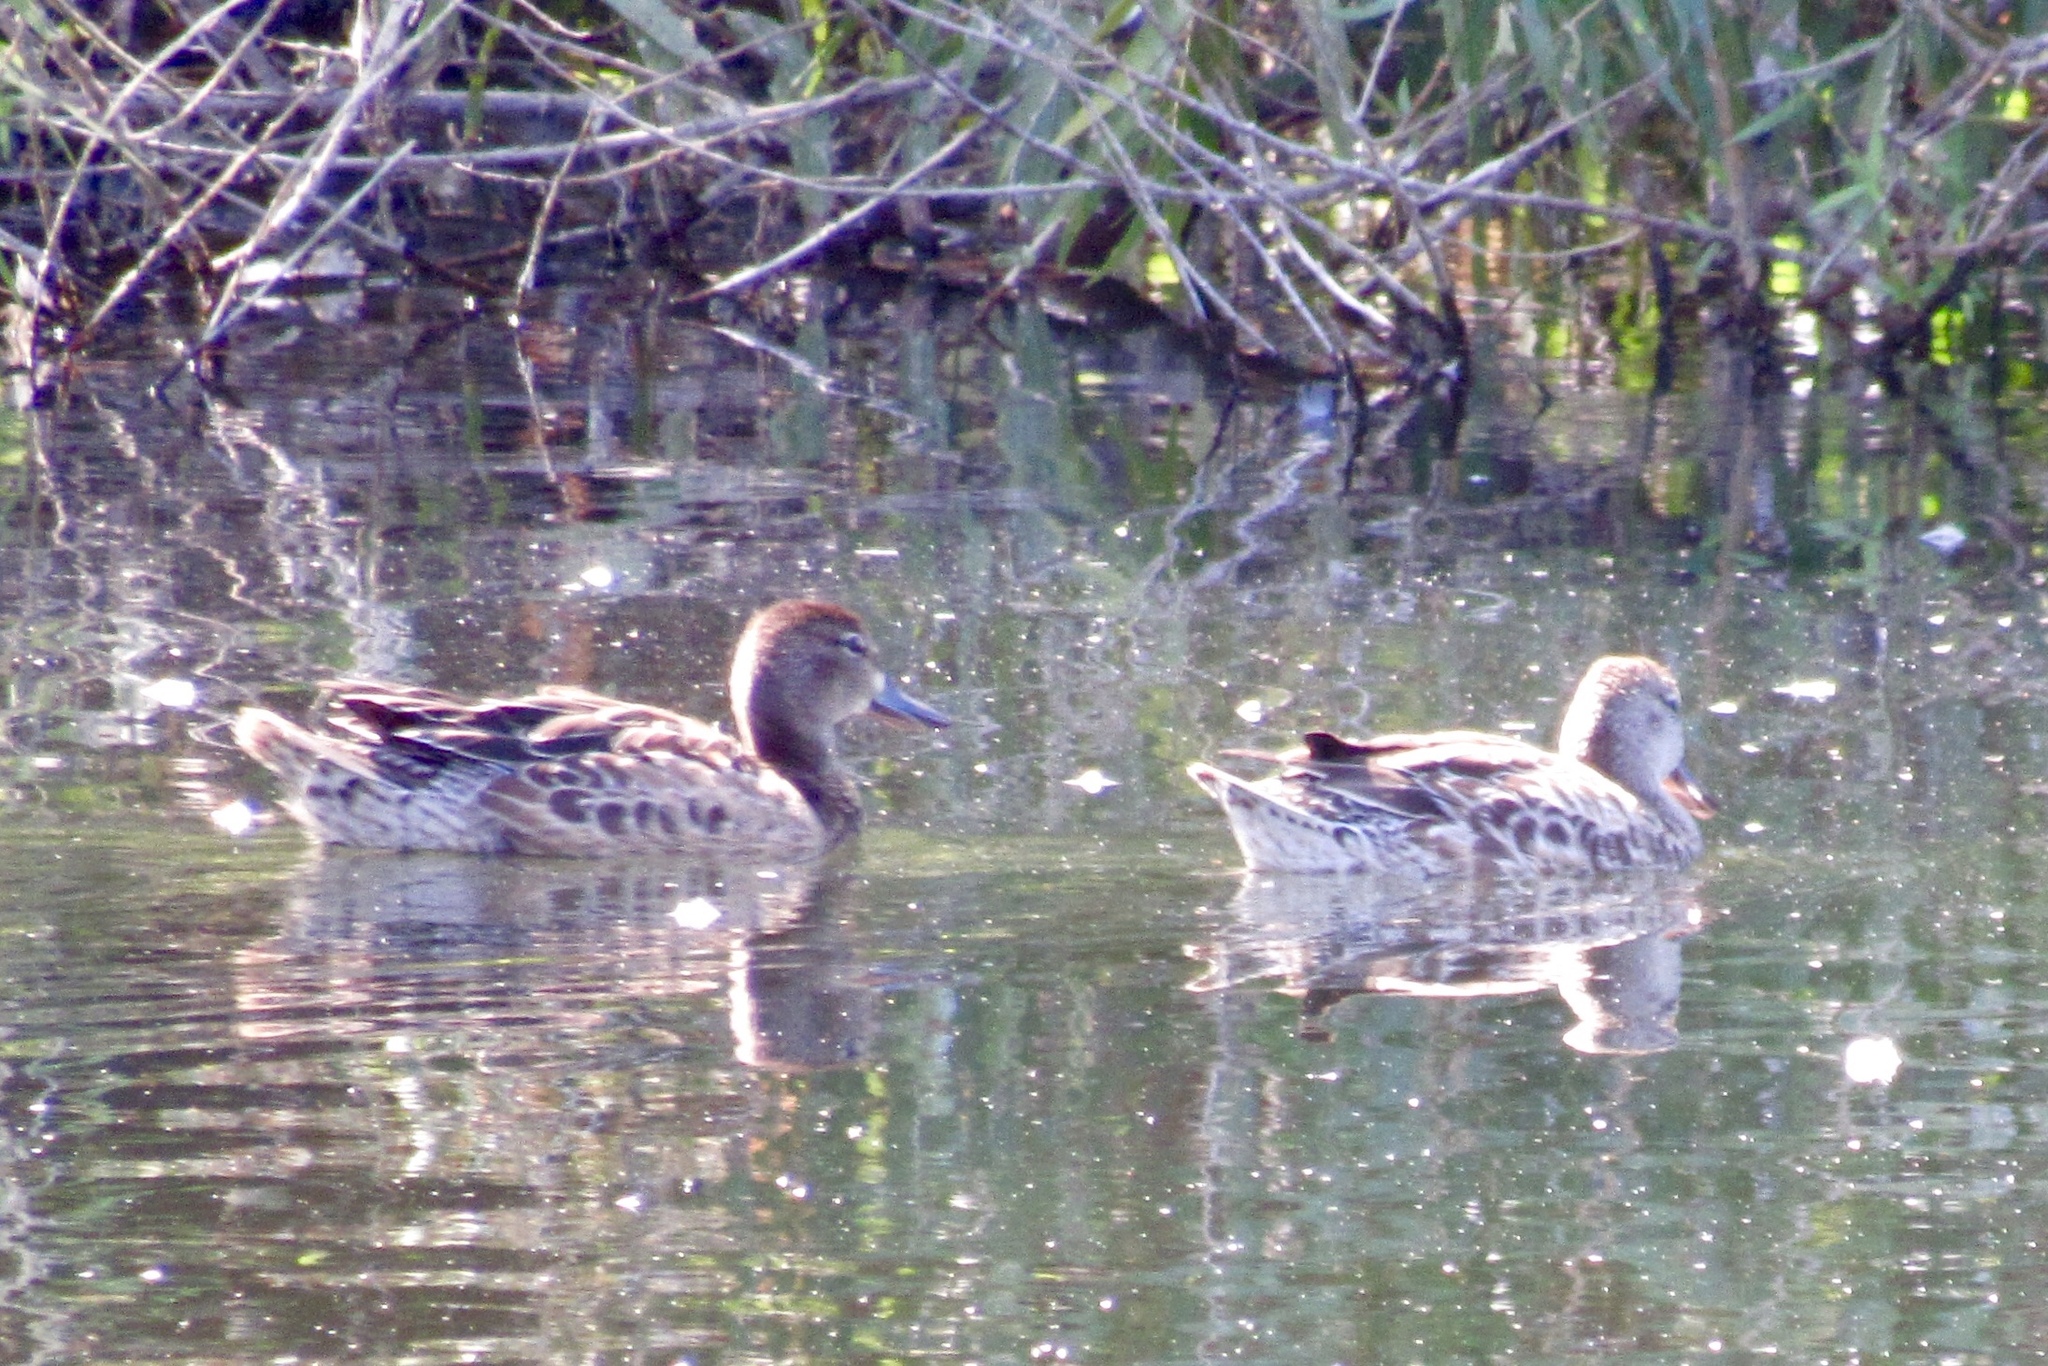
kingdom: Animalia
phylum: Chordata
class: Aves
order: Anseriformes
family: Anatidae
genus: Spatula
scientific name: Spatula discors
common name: Blue-winged teal
